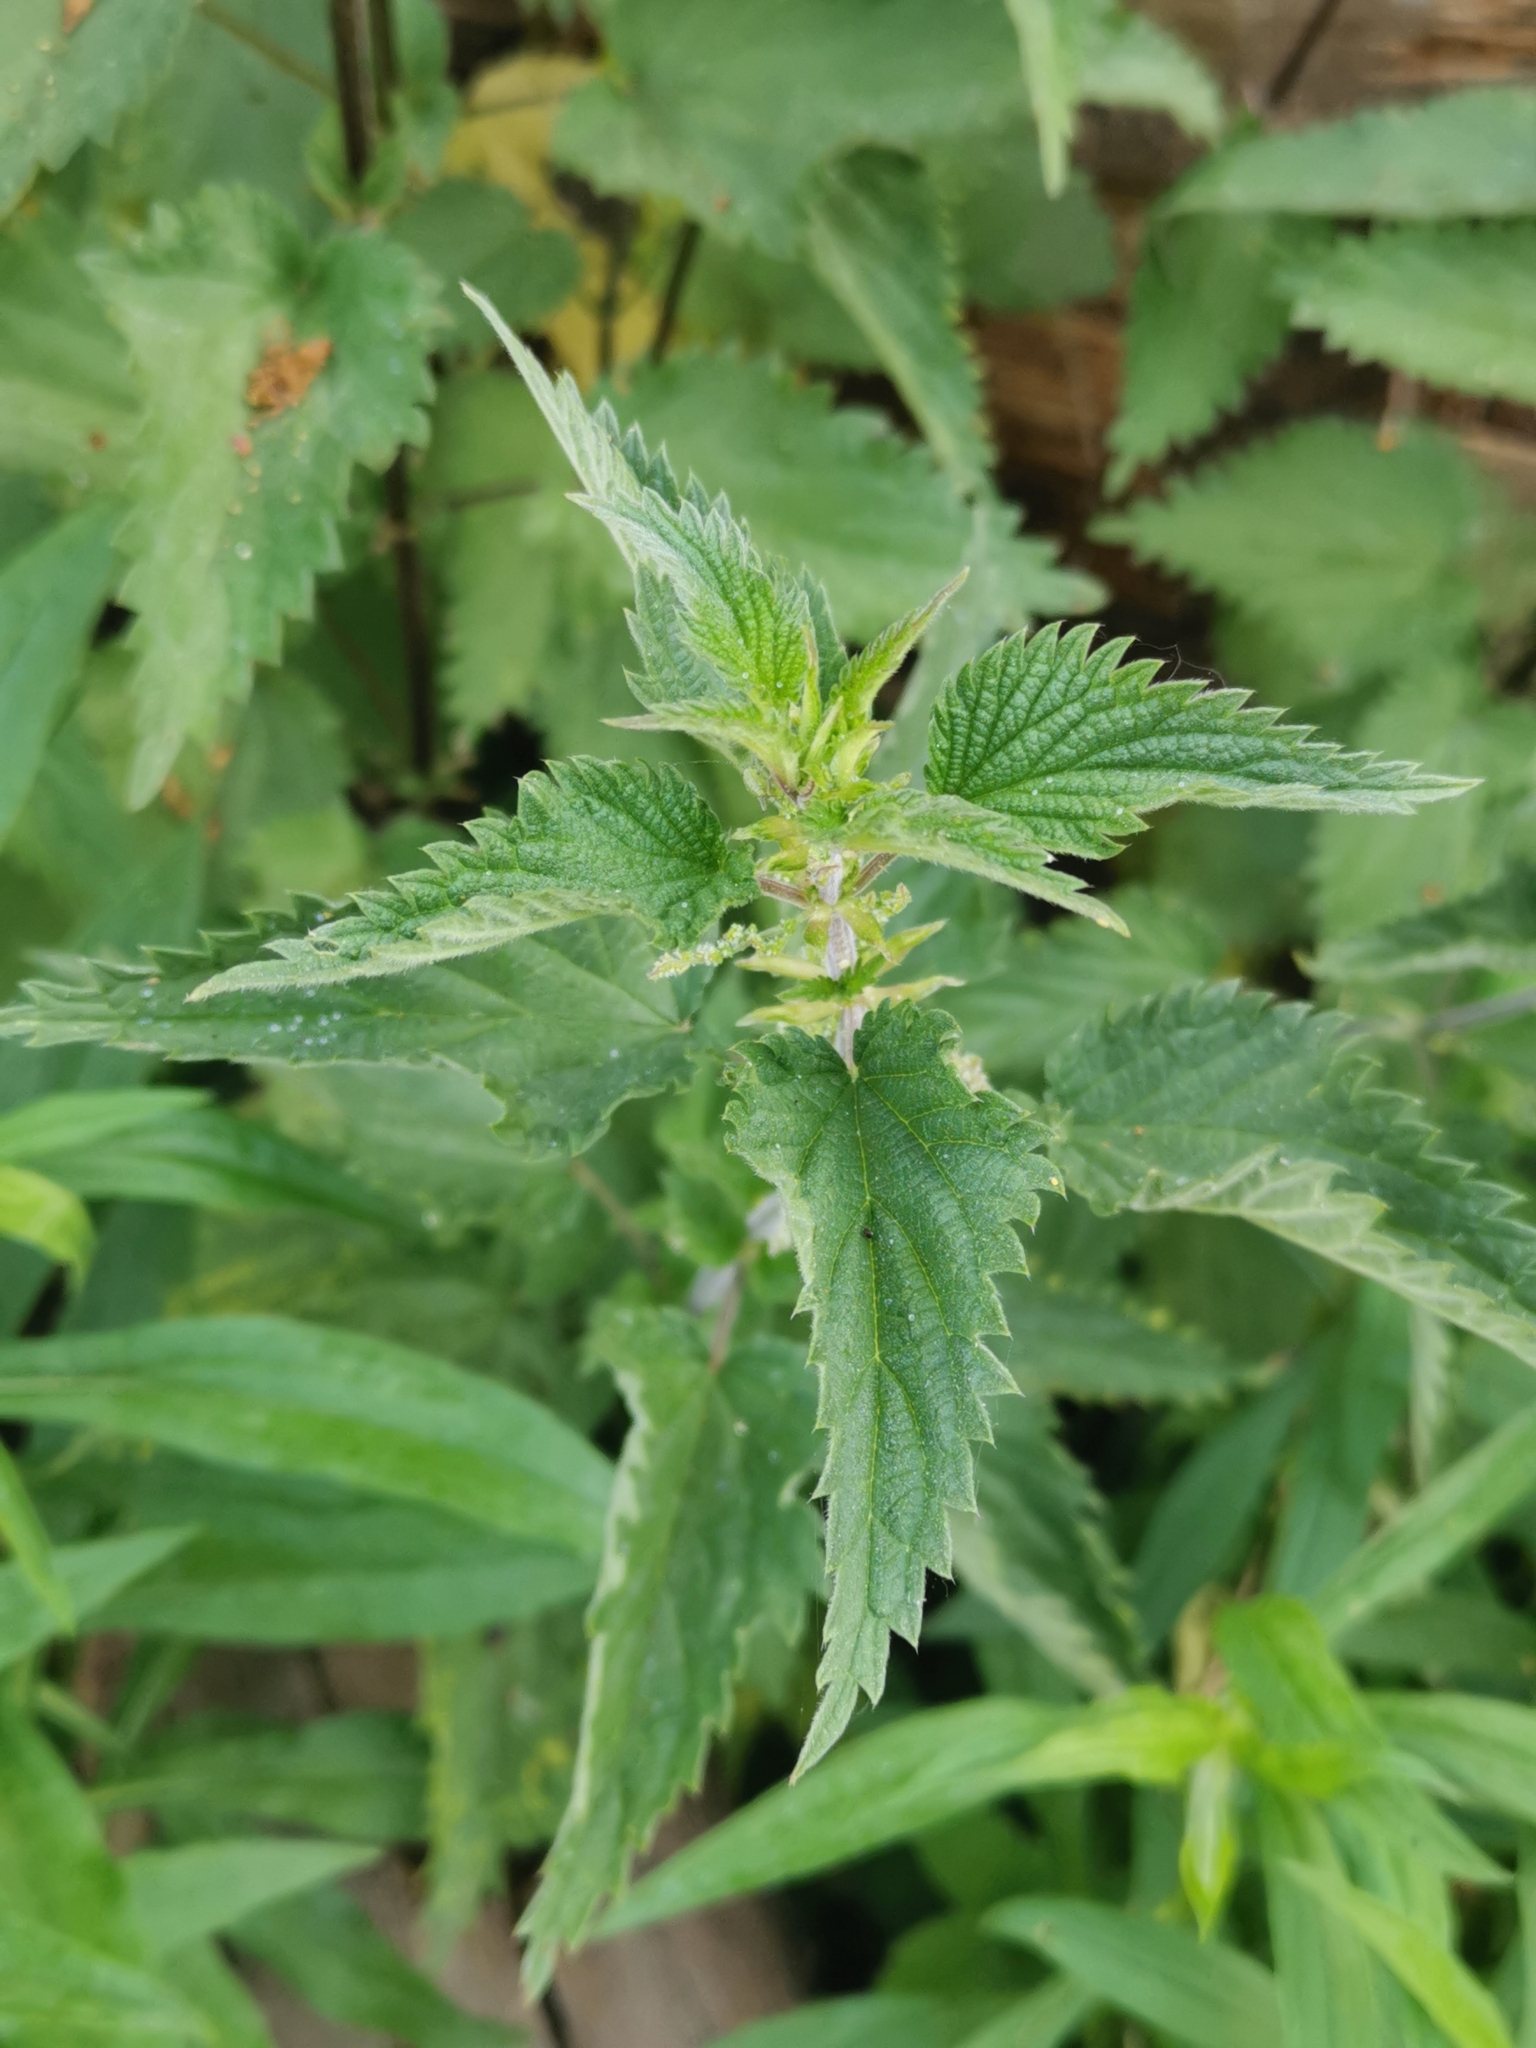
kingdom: Plantae
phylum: Tracheophyta
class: Magnoliopsida
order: Rosales
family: Urticaceae
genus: Urtica
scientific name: Urtica dioica
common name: Common nettle
